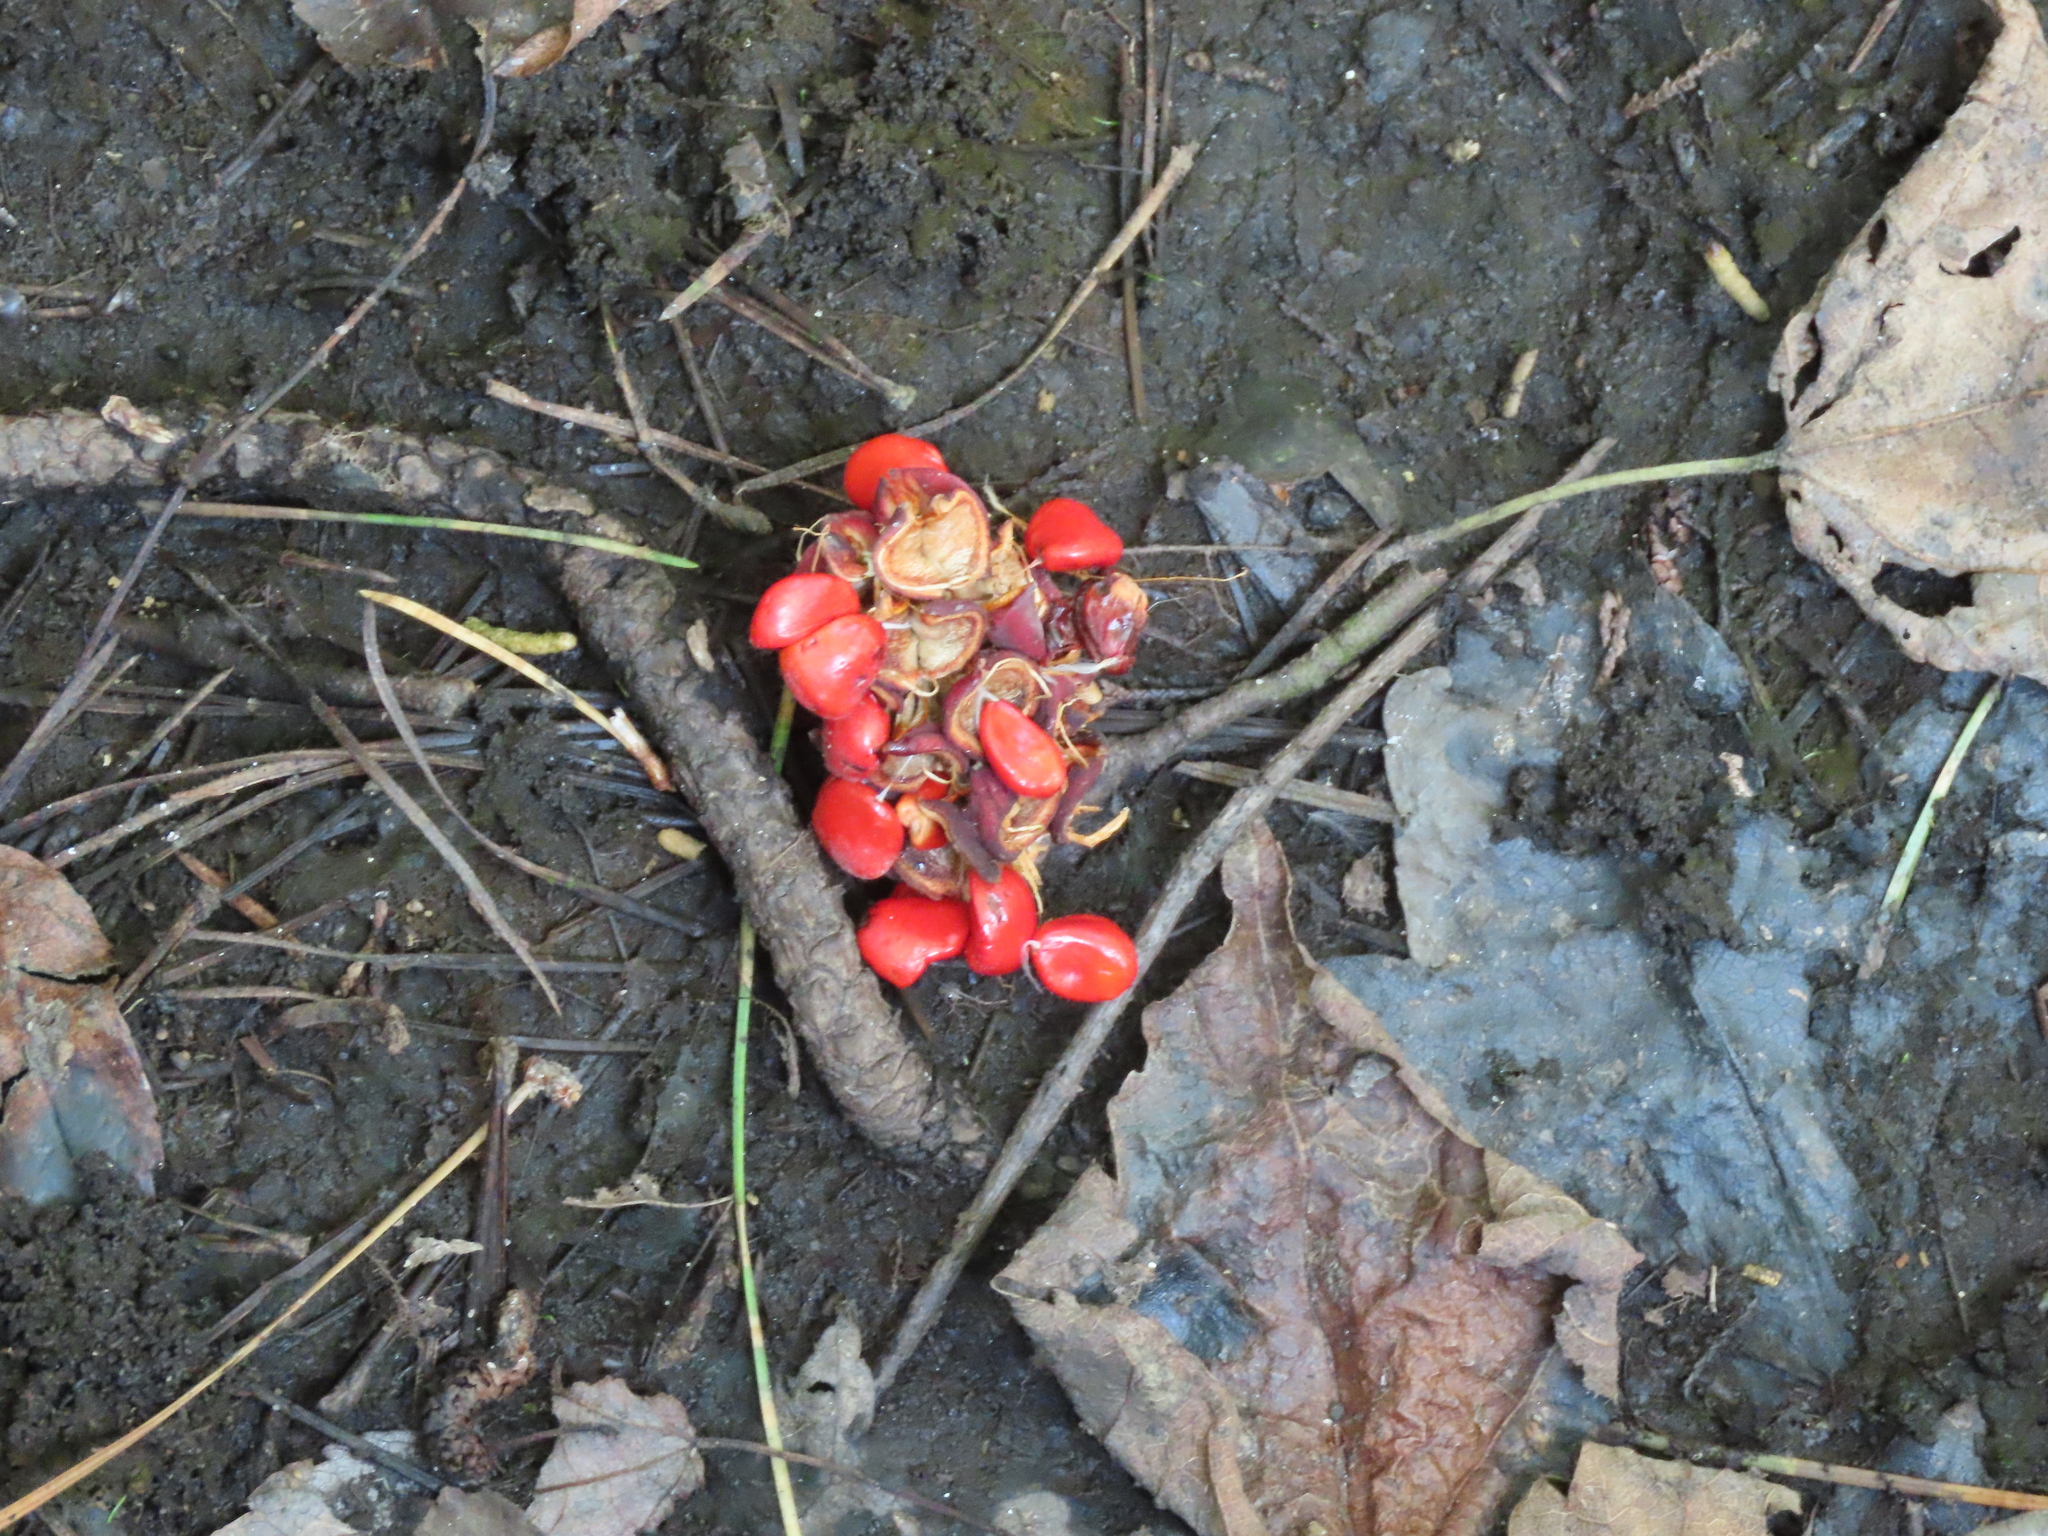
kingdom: Plantae
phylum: Tracheophyta
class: Liliopsida
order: Alismatales
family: Araceae
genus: Arisaema
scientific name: Arisaema triphyllum
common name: Jack-in-the-pulpit
